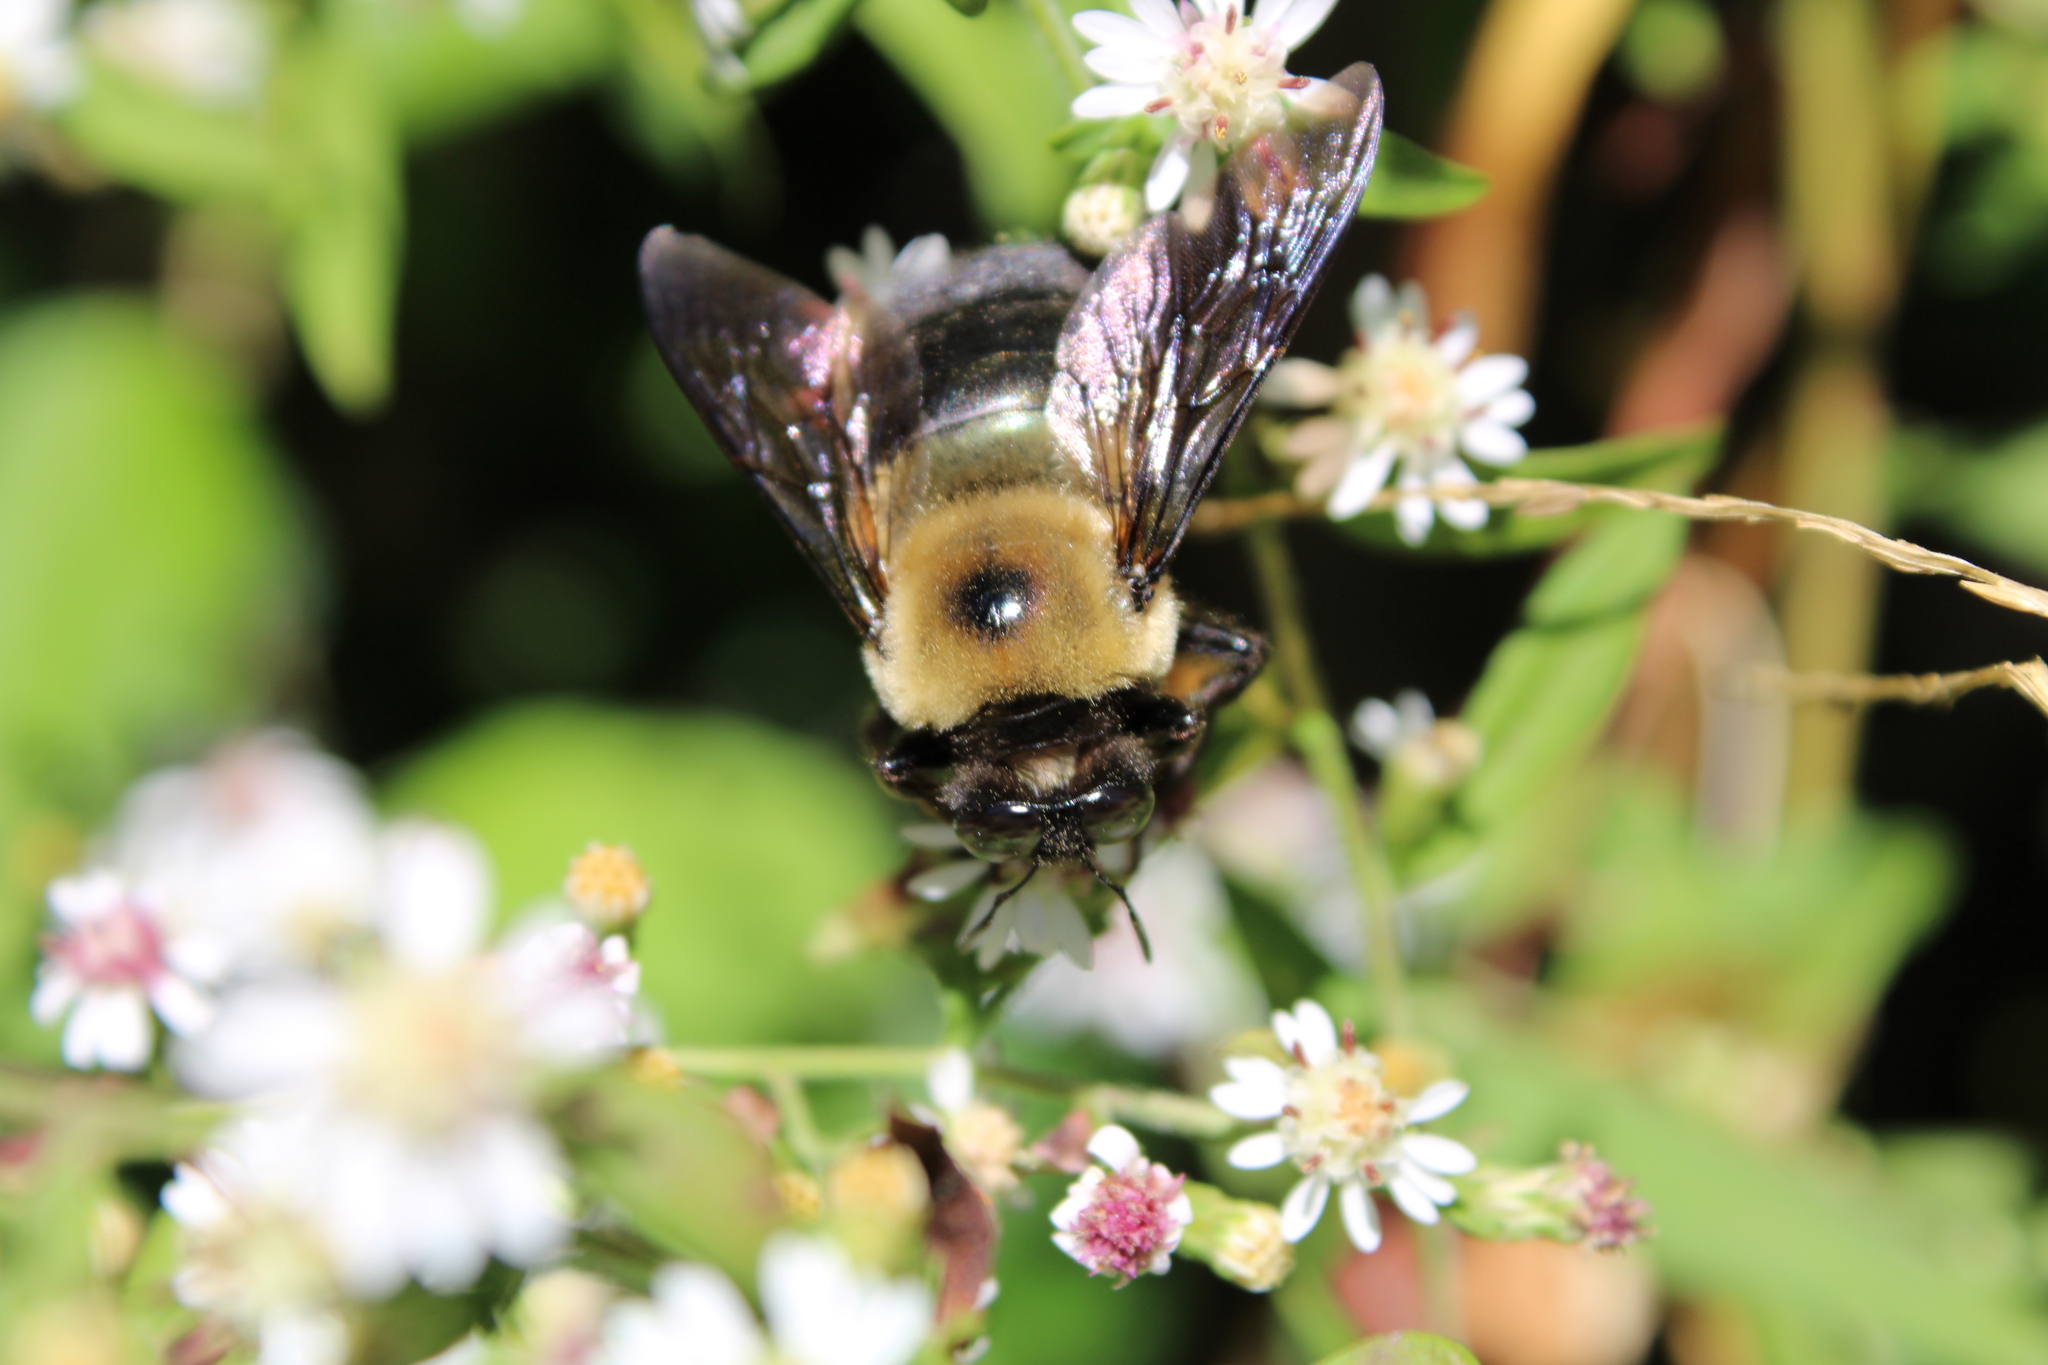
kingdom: Animalia
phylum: Arthropoda
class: Insecta
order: Hymenoptera
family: Apidae
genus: Xylocopa
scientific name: Xylocopa virginica
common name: Carpenter bee
